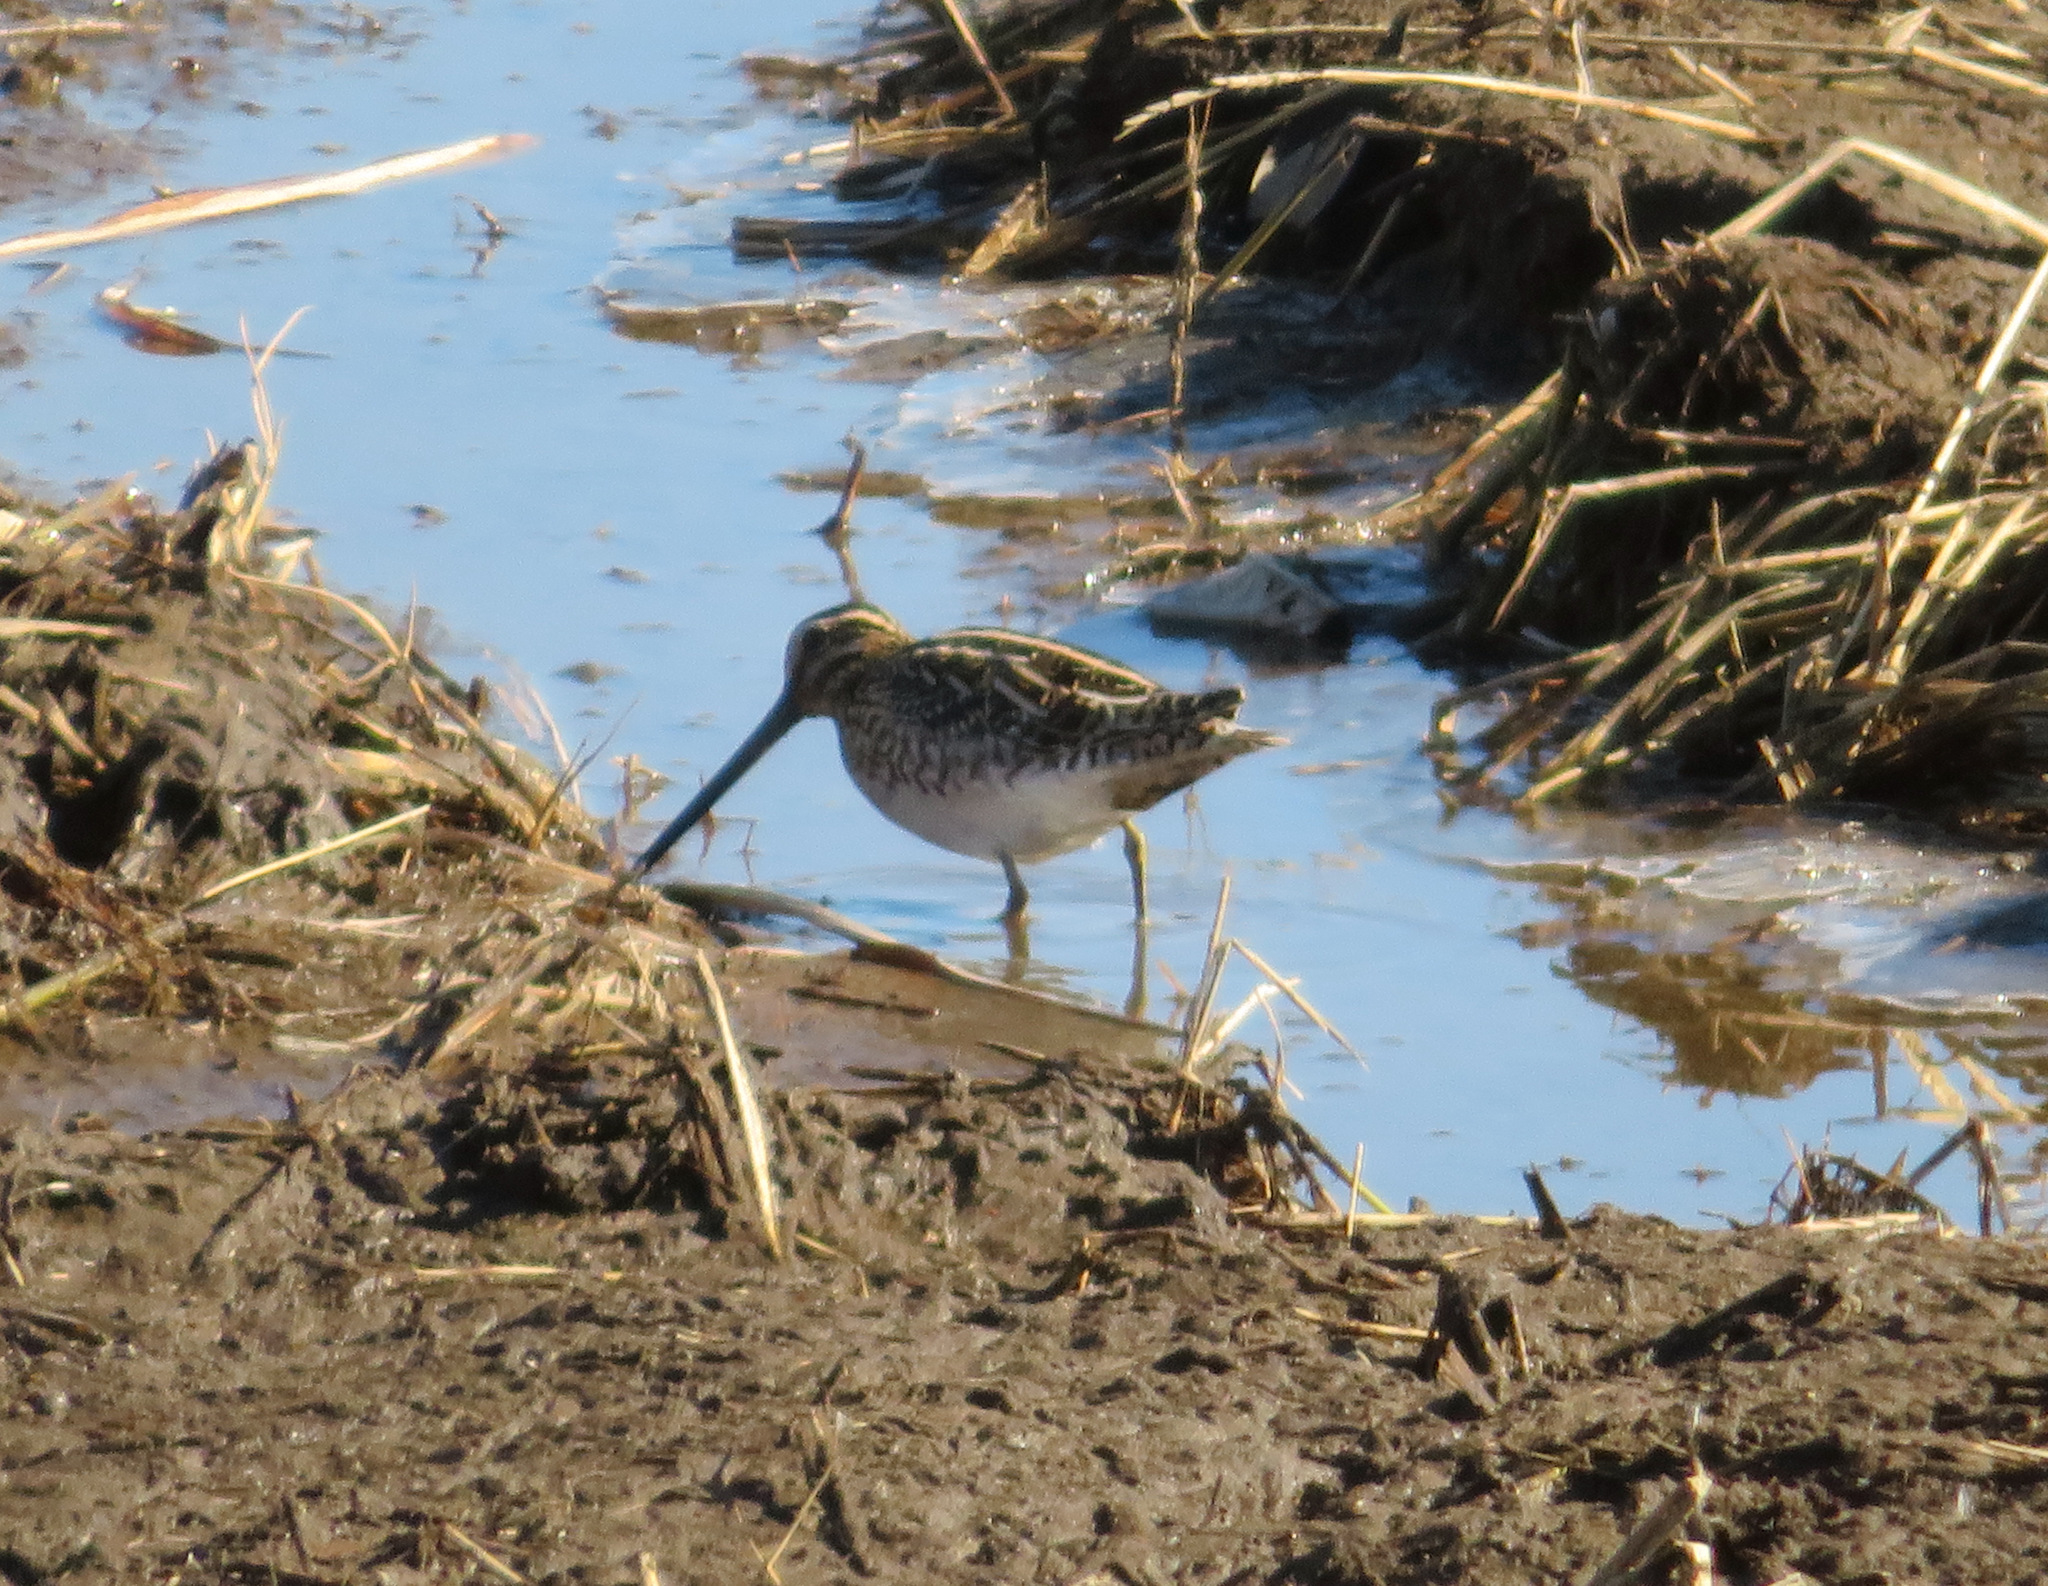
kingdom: Animalia
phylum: Chordata
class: Aves
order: Charadriiformes
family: Scolopacidae
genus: Gallinago
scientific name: Gallinago gallinago
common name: Common snipe
